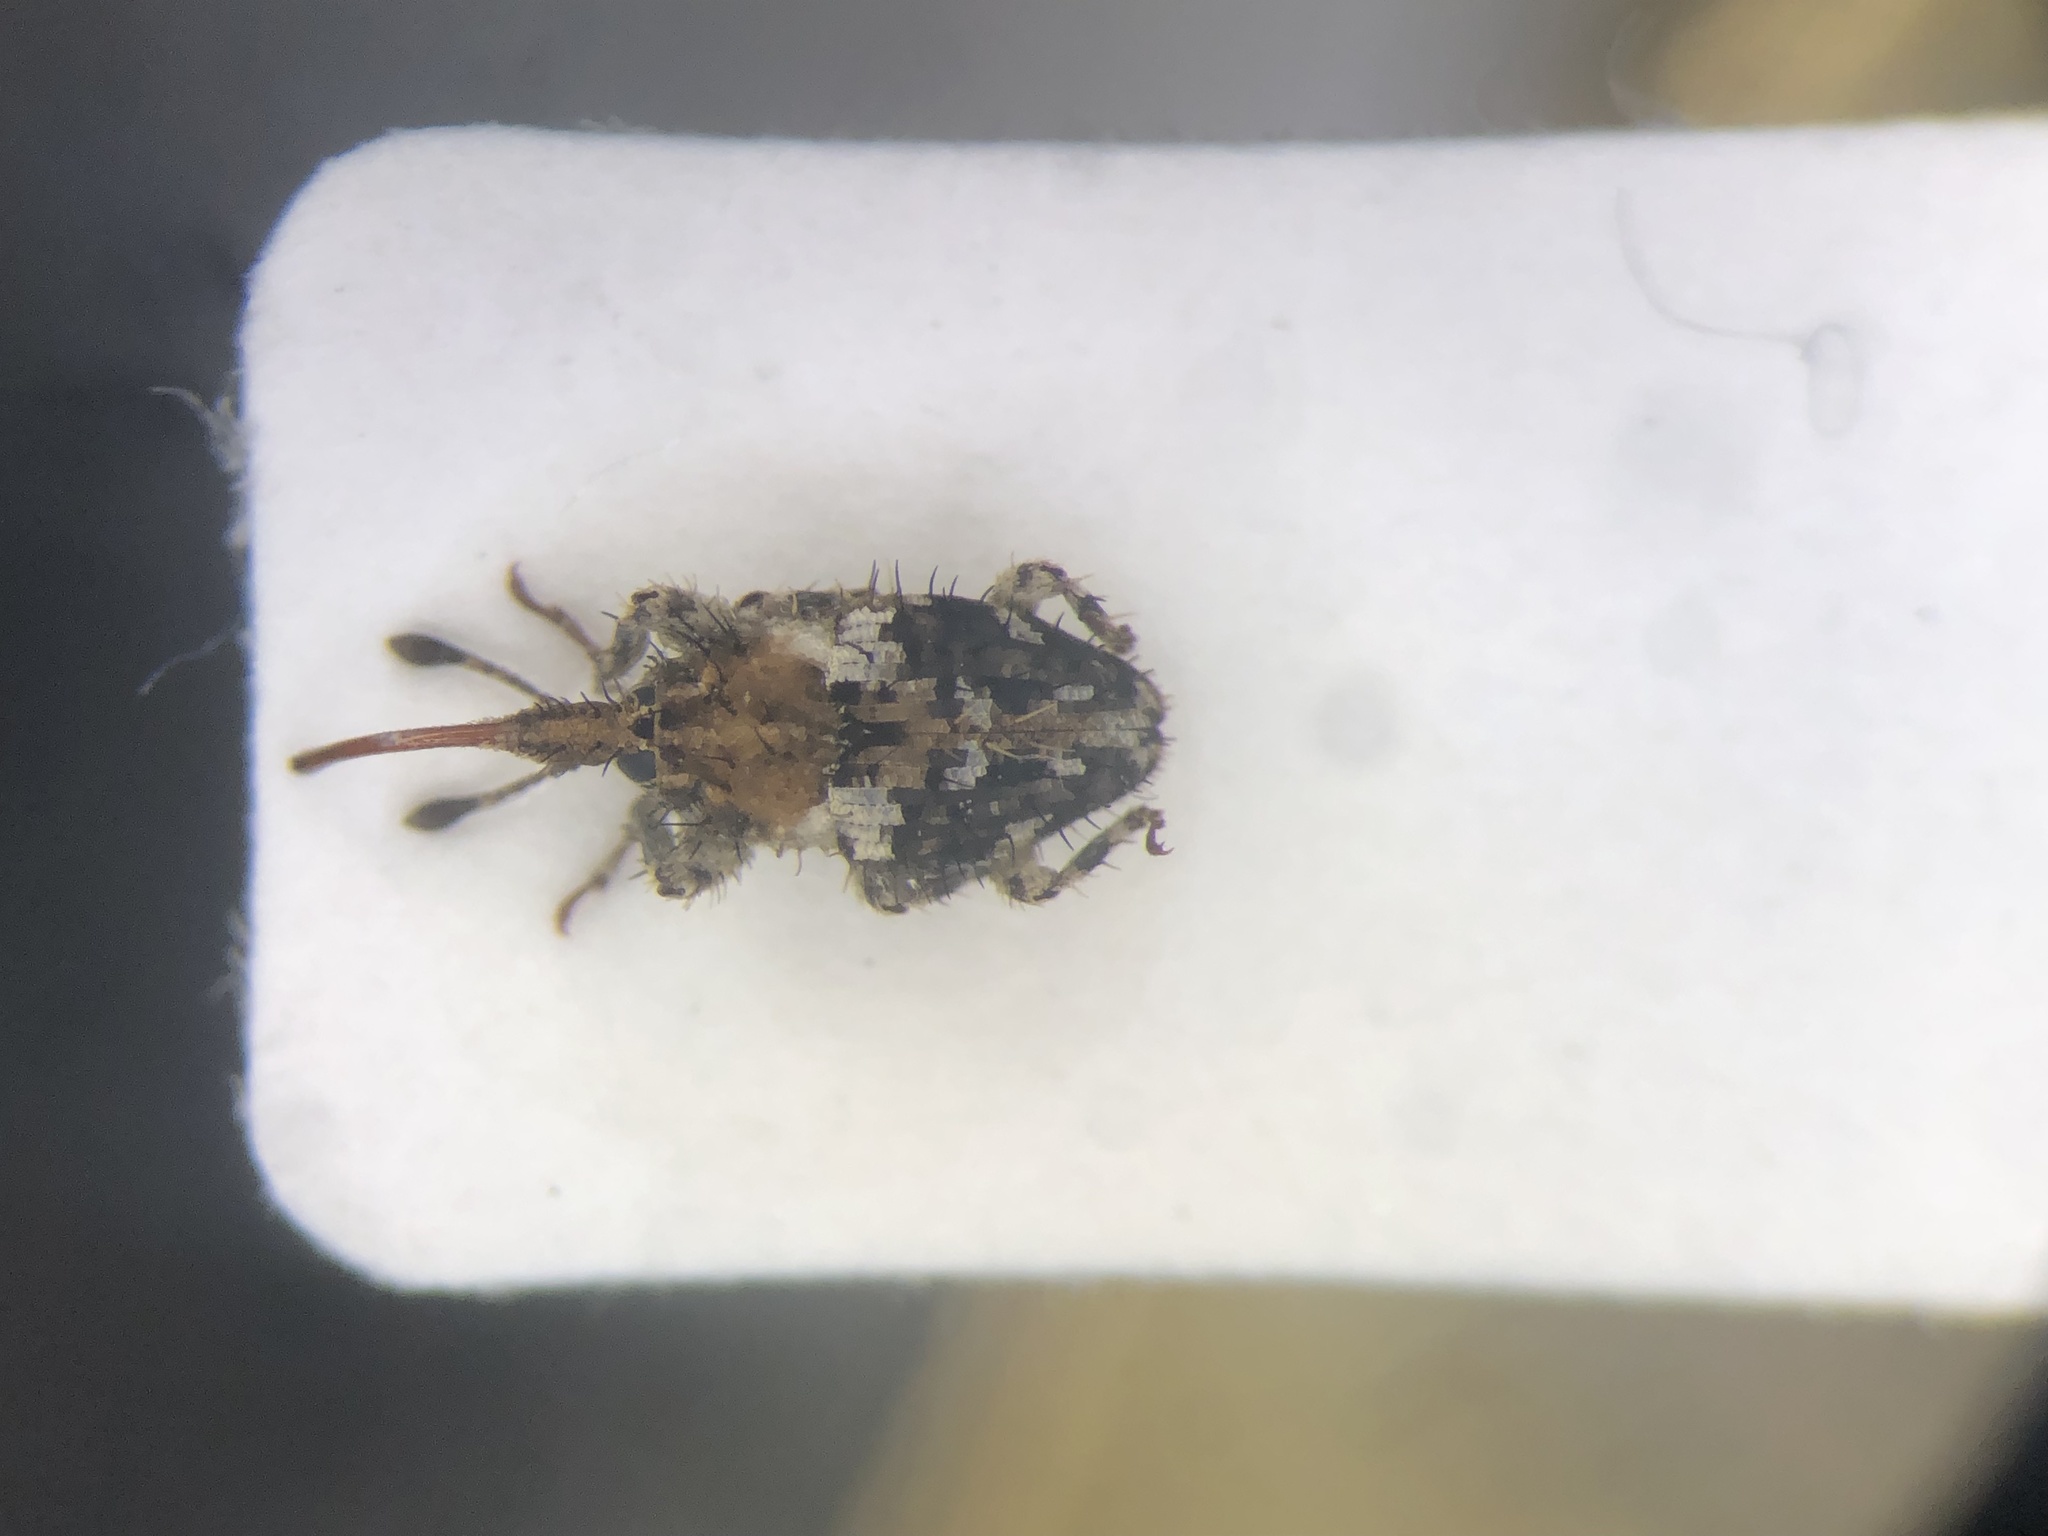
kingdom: Animalia
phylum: Arthropoda
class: Insecta
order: Coleoptera
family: Curculionidae
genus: Plocamus
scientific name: Plocamus echidna
